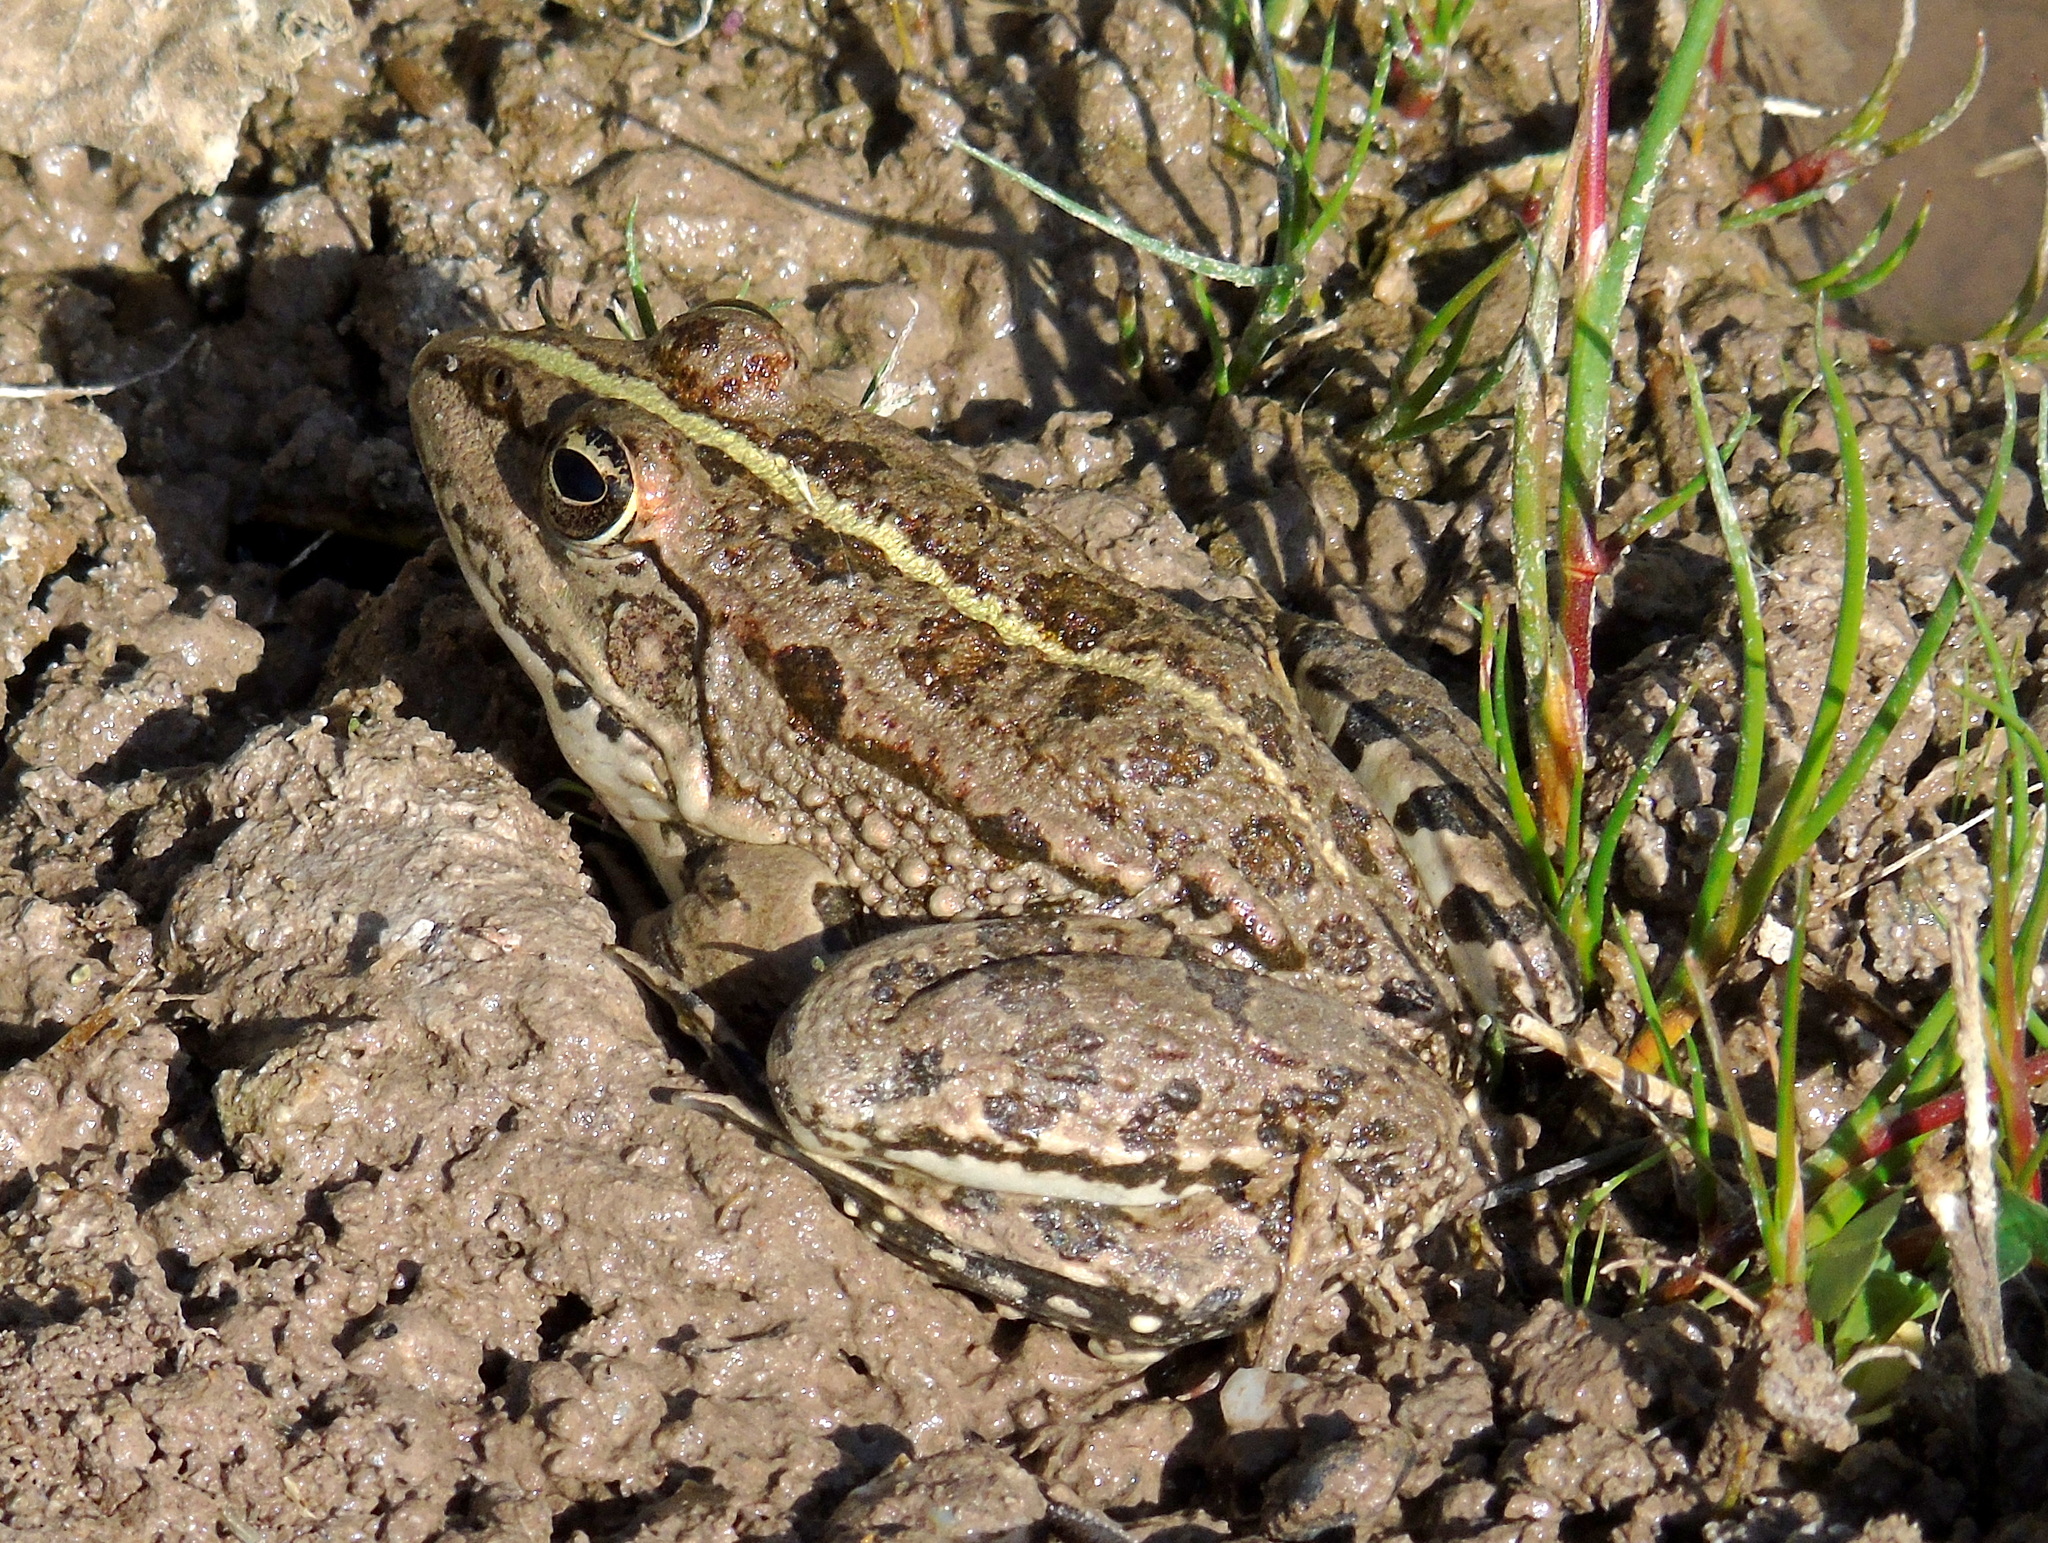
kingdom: Animalia
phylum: Chordata
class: Amphibia
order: Anura
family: Ranidae
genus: Pelophylax
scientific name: Pelophylax ridibundus
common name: Marsh frog
